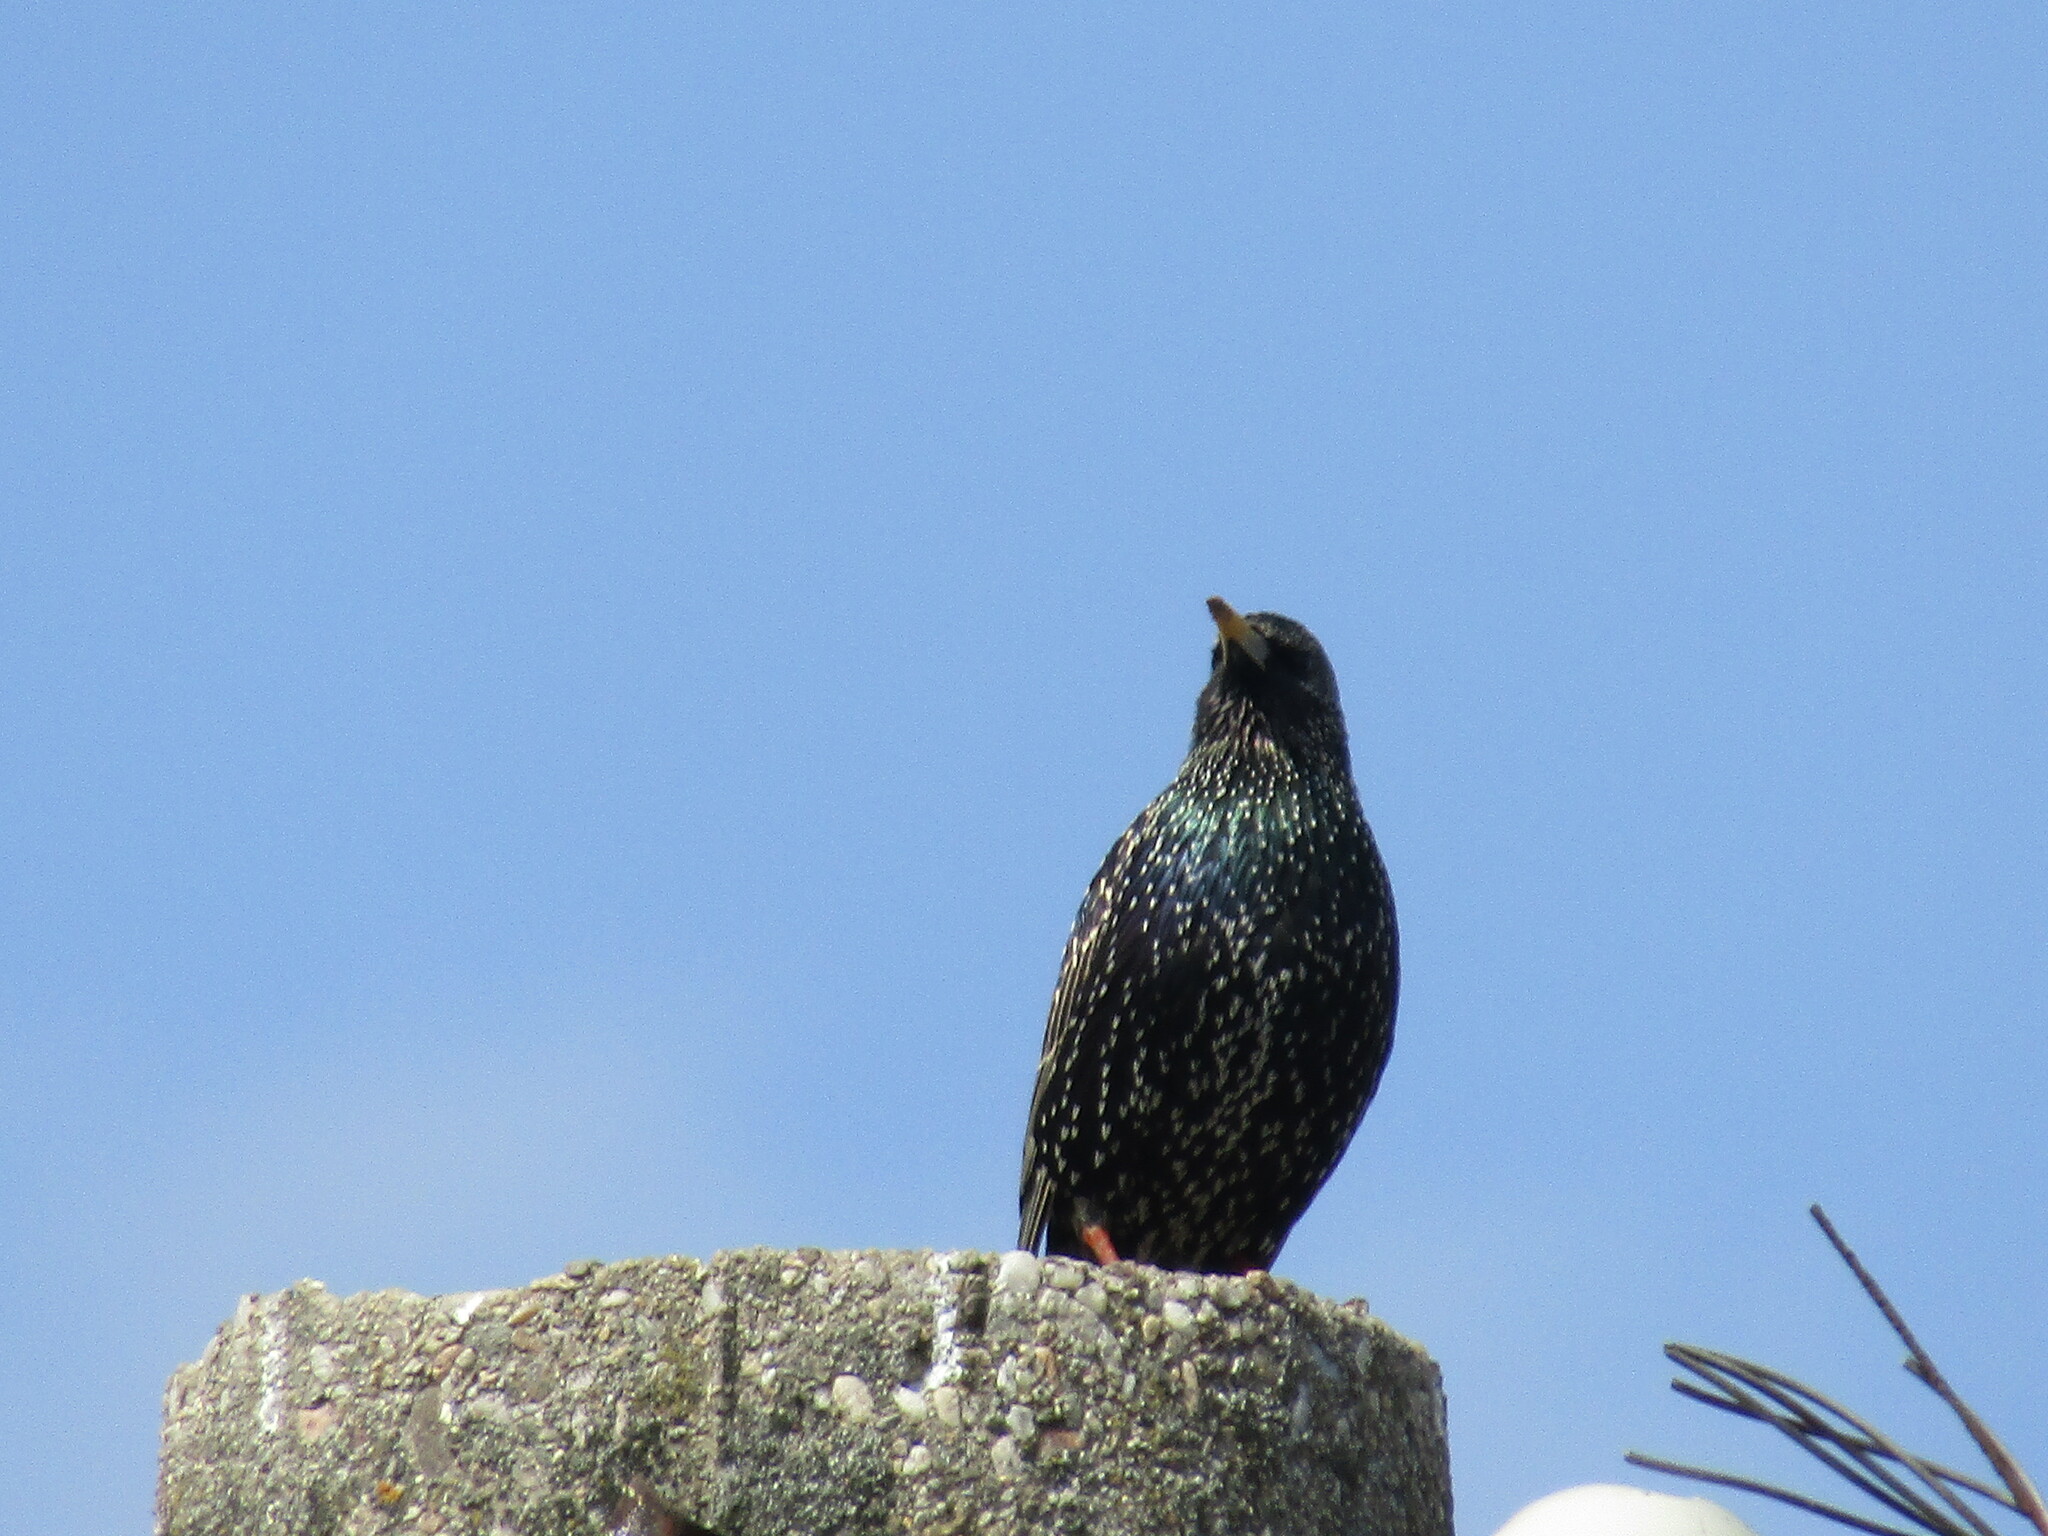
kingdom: Animalia
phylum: Chordata
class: Aves
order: Passeriformes
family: Sturnidae
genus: Sturnus
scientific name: Sturnus vulgaris
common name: Common starling
